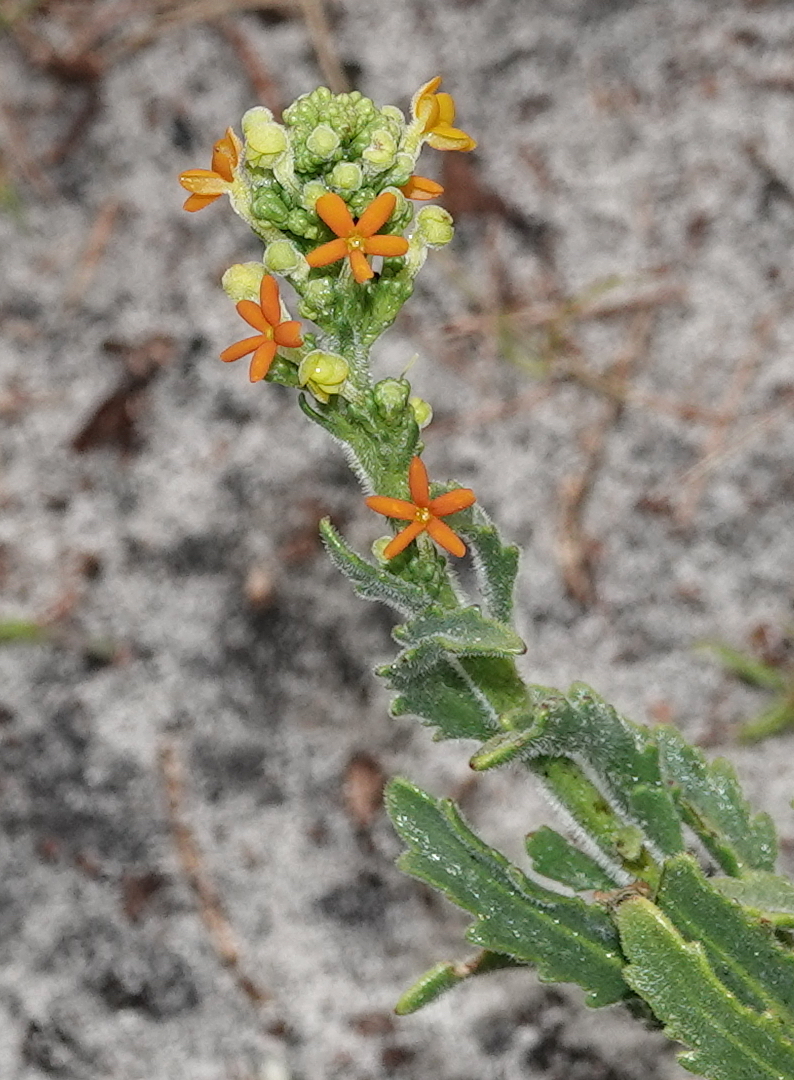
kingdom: Plantae
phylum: Tracheophyta
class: Magnoliopsida
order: Lamiales
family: Scrophulariaceae
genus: Manulea
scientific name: Manulea tomentosa
